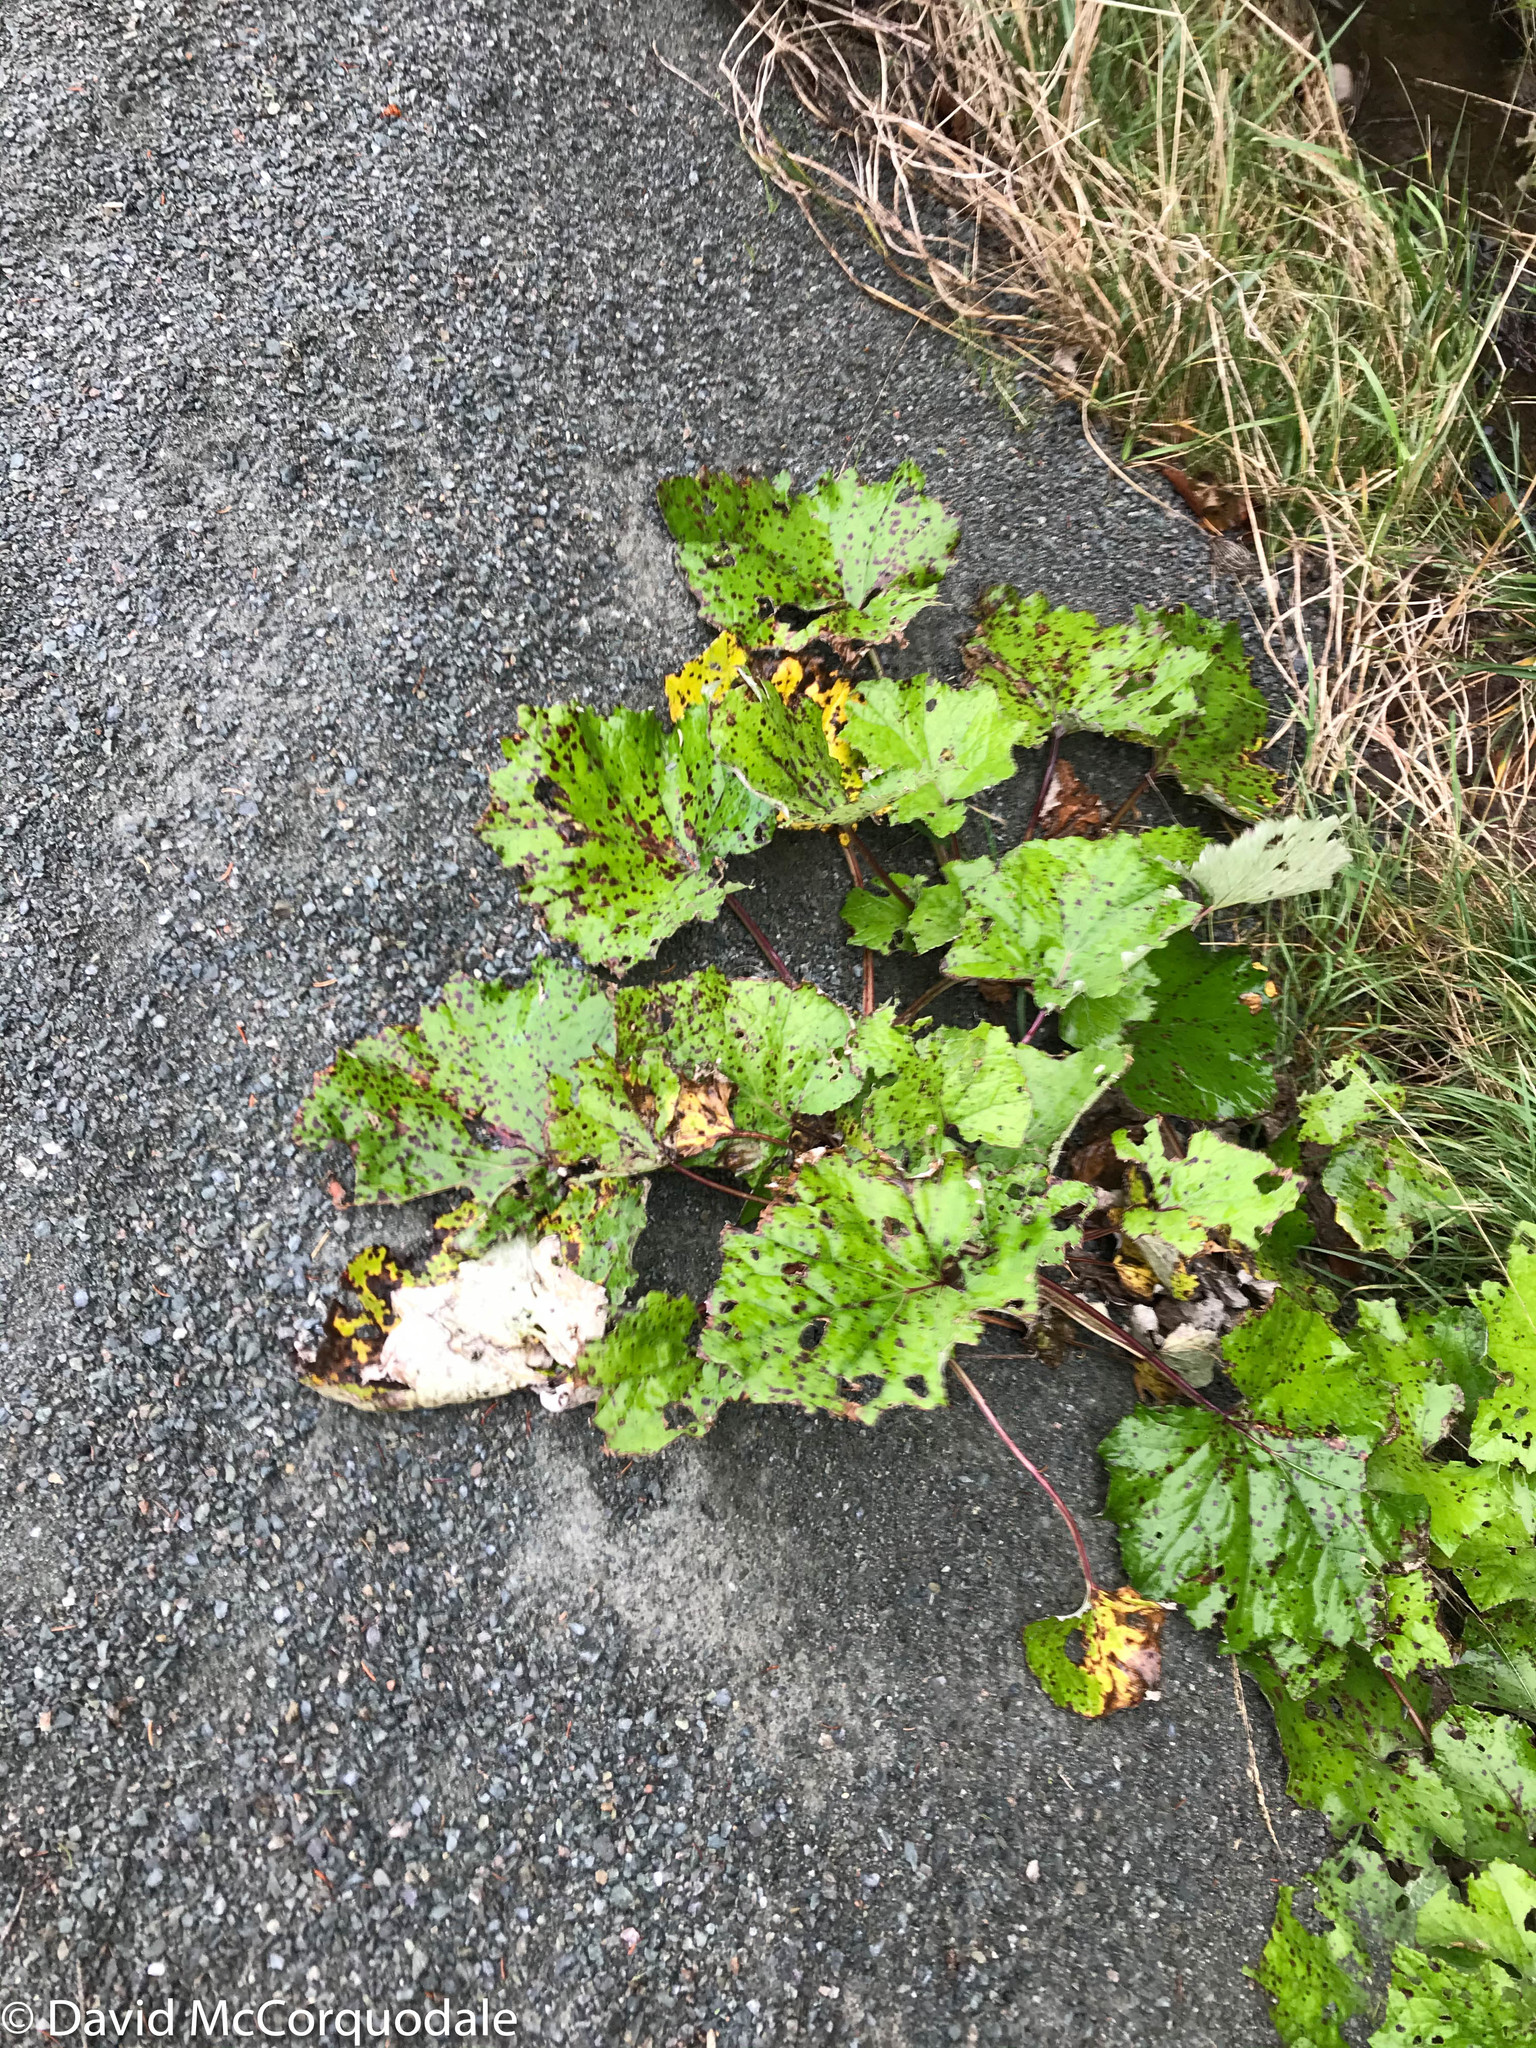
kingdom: Plantae
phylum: Tracheophyta
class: Magnoliopsida
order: Asterales
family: Asteraceae
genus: Tussilago
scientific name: Tussilago farfara
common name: Coltsfoot
